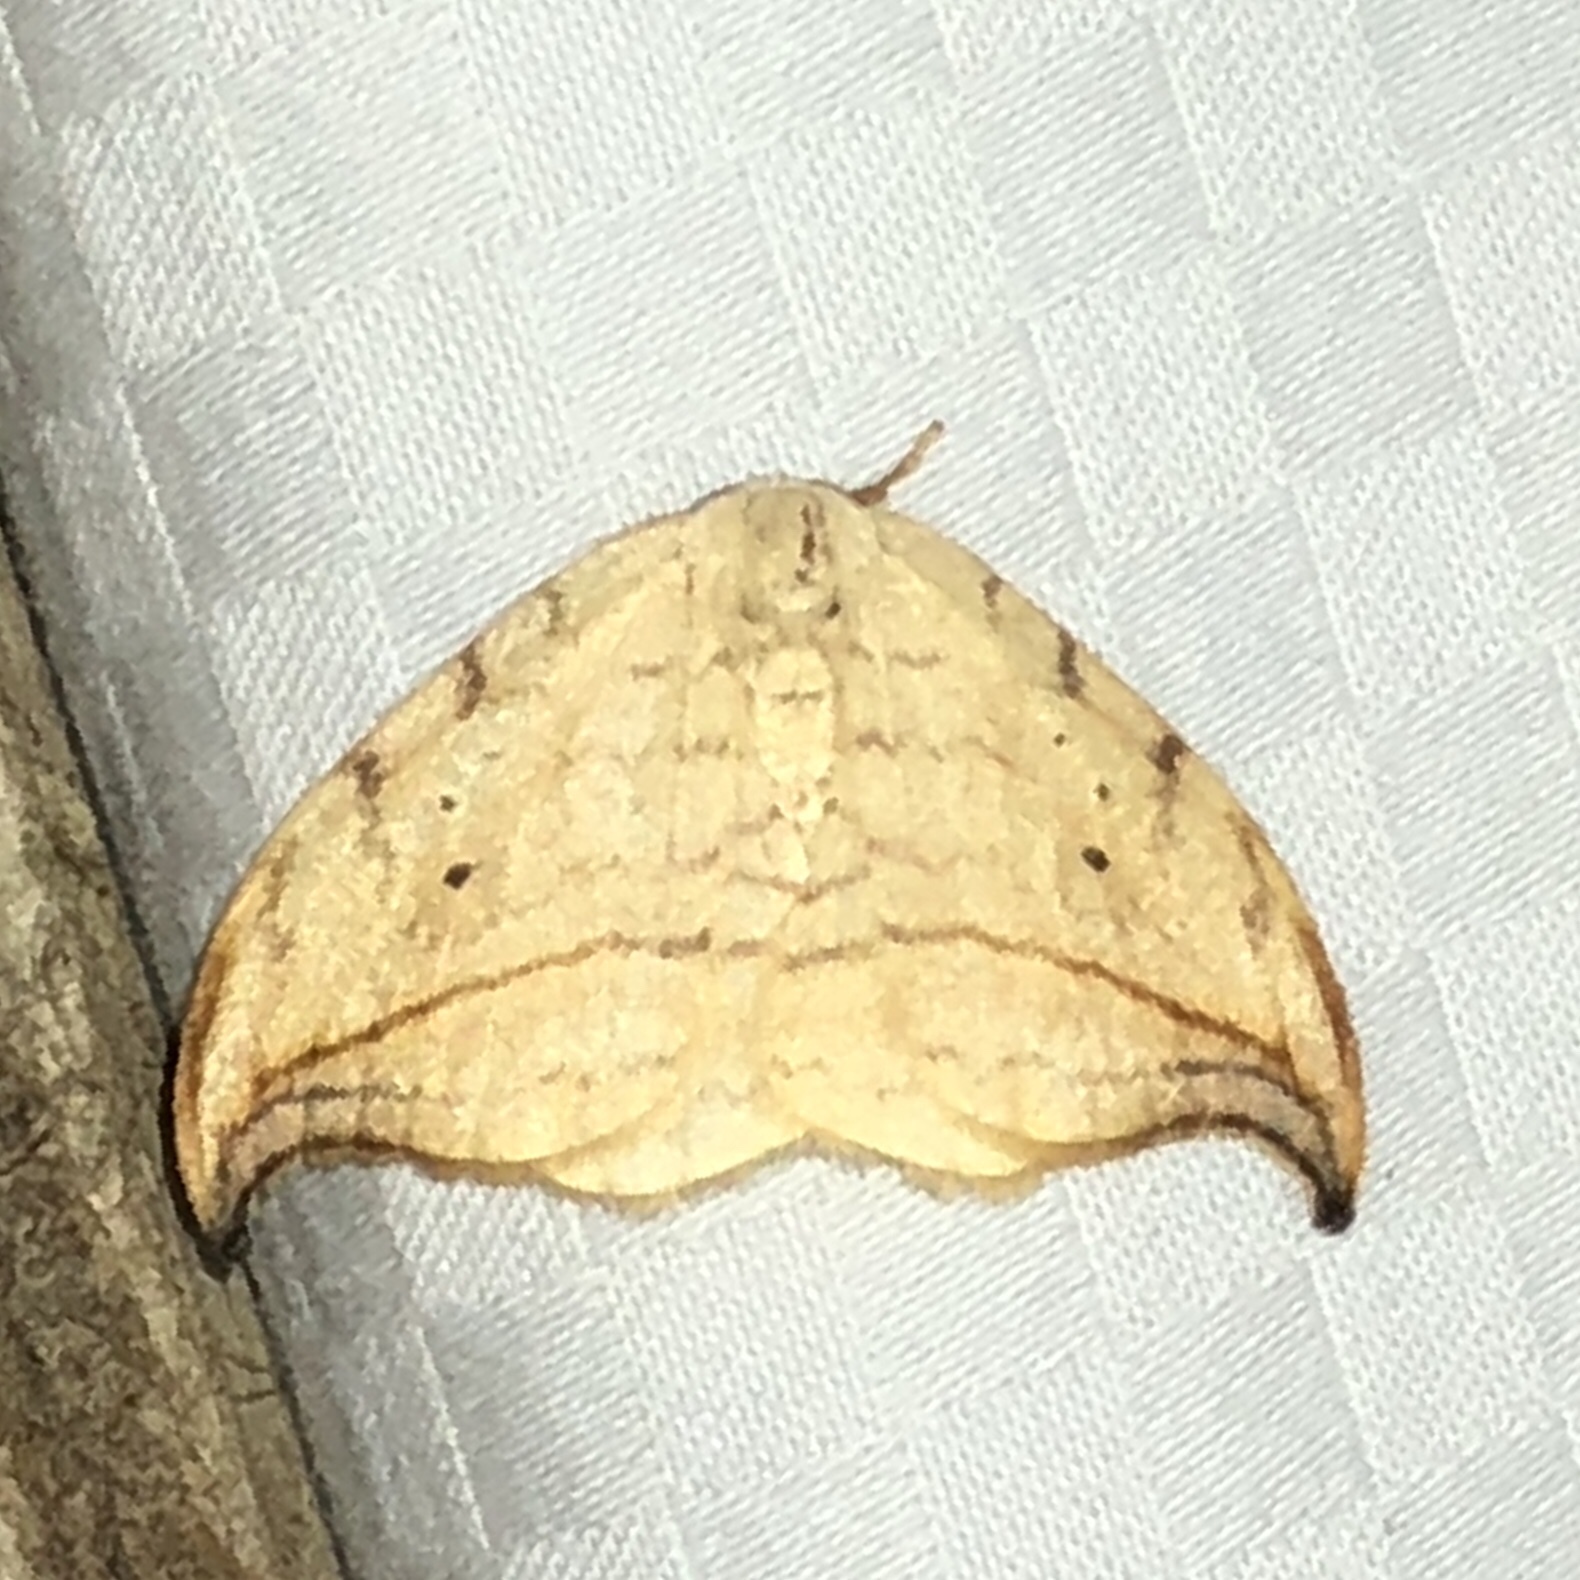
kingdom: Animalia
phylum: Arthropoda
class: Insecta
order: Lepidoptera
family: Drepanidae
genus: Drepana
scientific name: Drepana arcuata
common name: Arched hooktip moth
